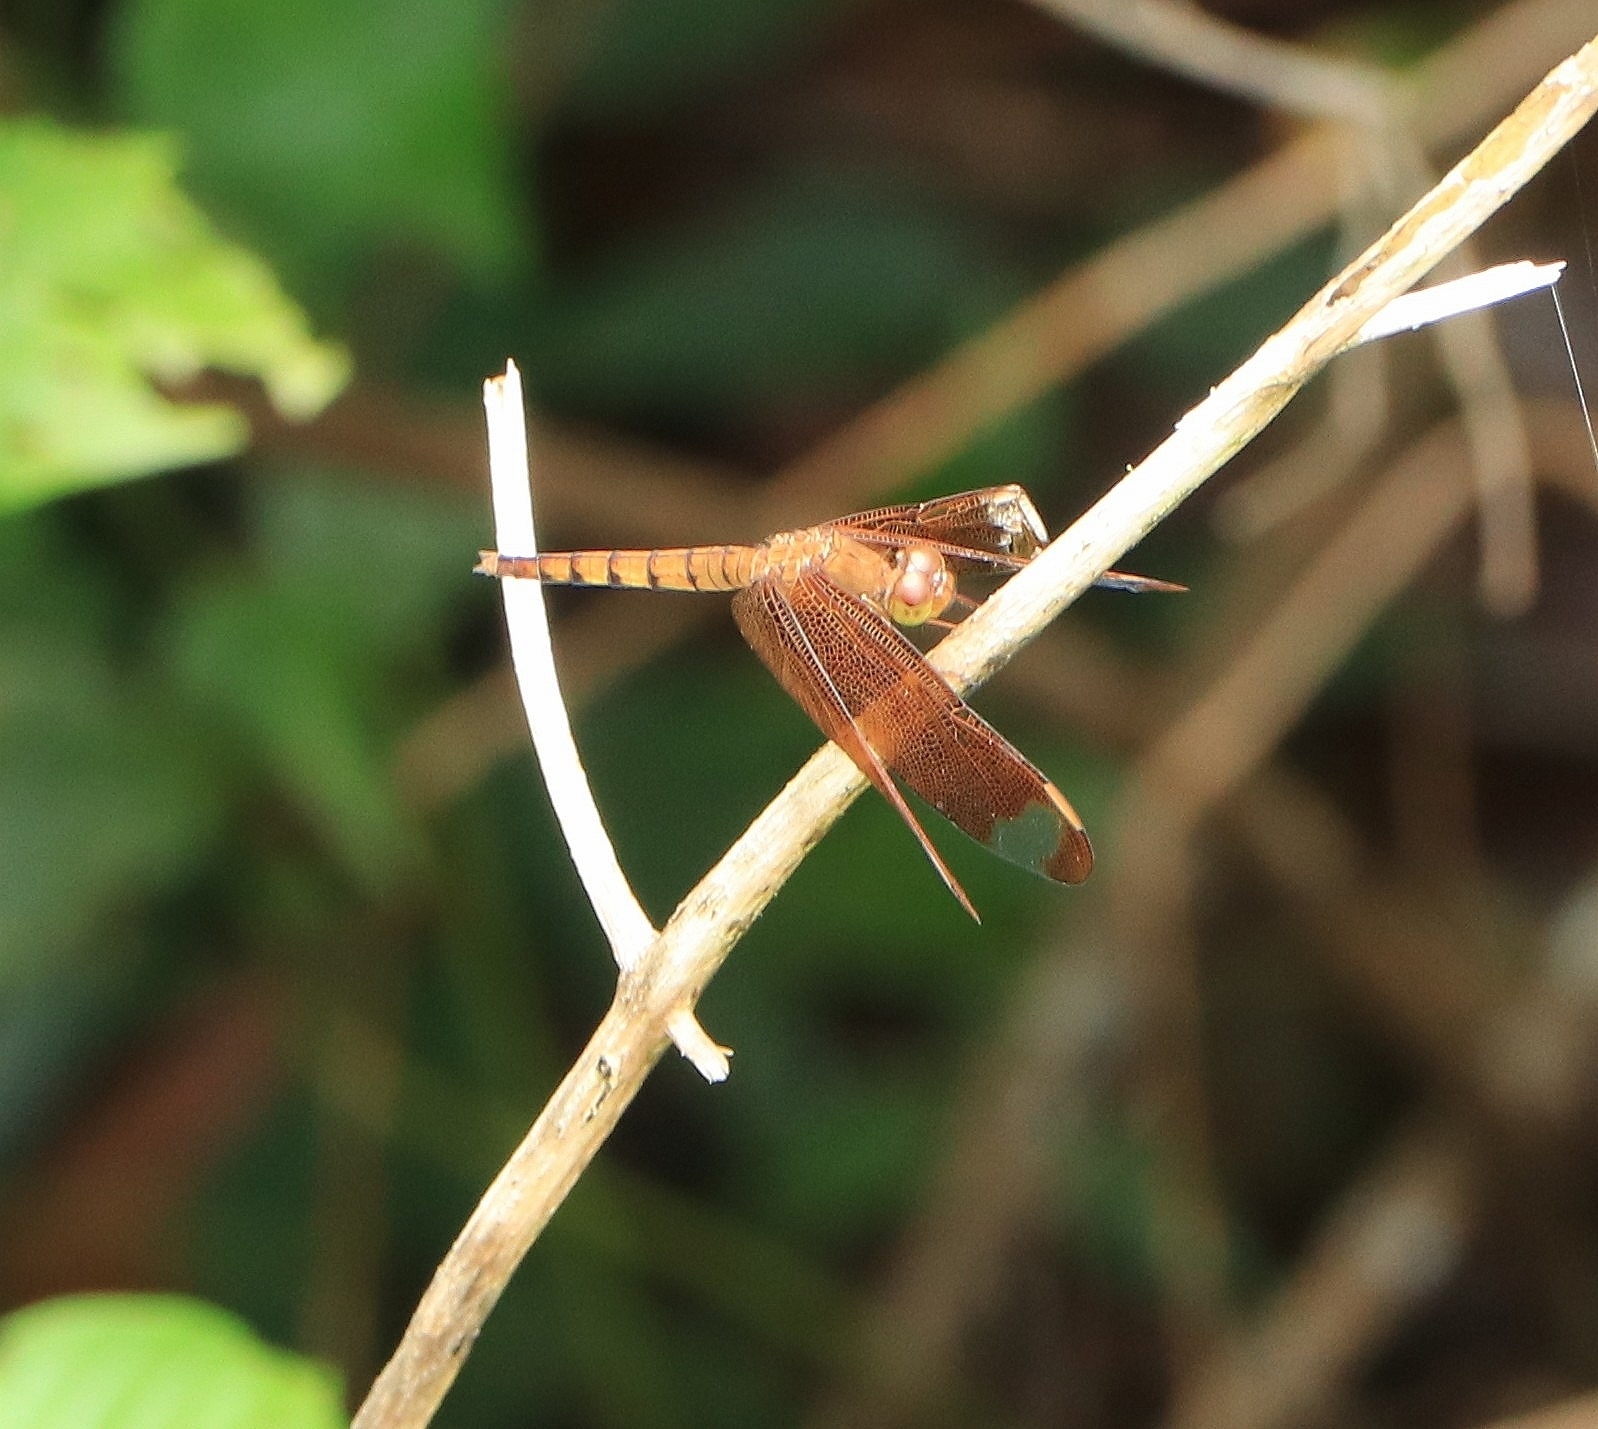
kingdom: Animalia
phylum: Arthropoda
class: Insecta
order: Odonata
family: Libellulidae
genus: Neurothemis
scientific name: Neurothemis fulvia
